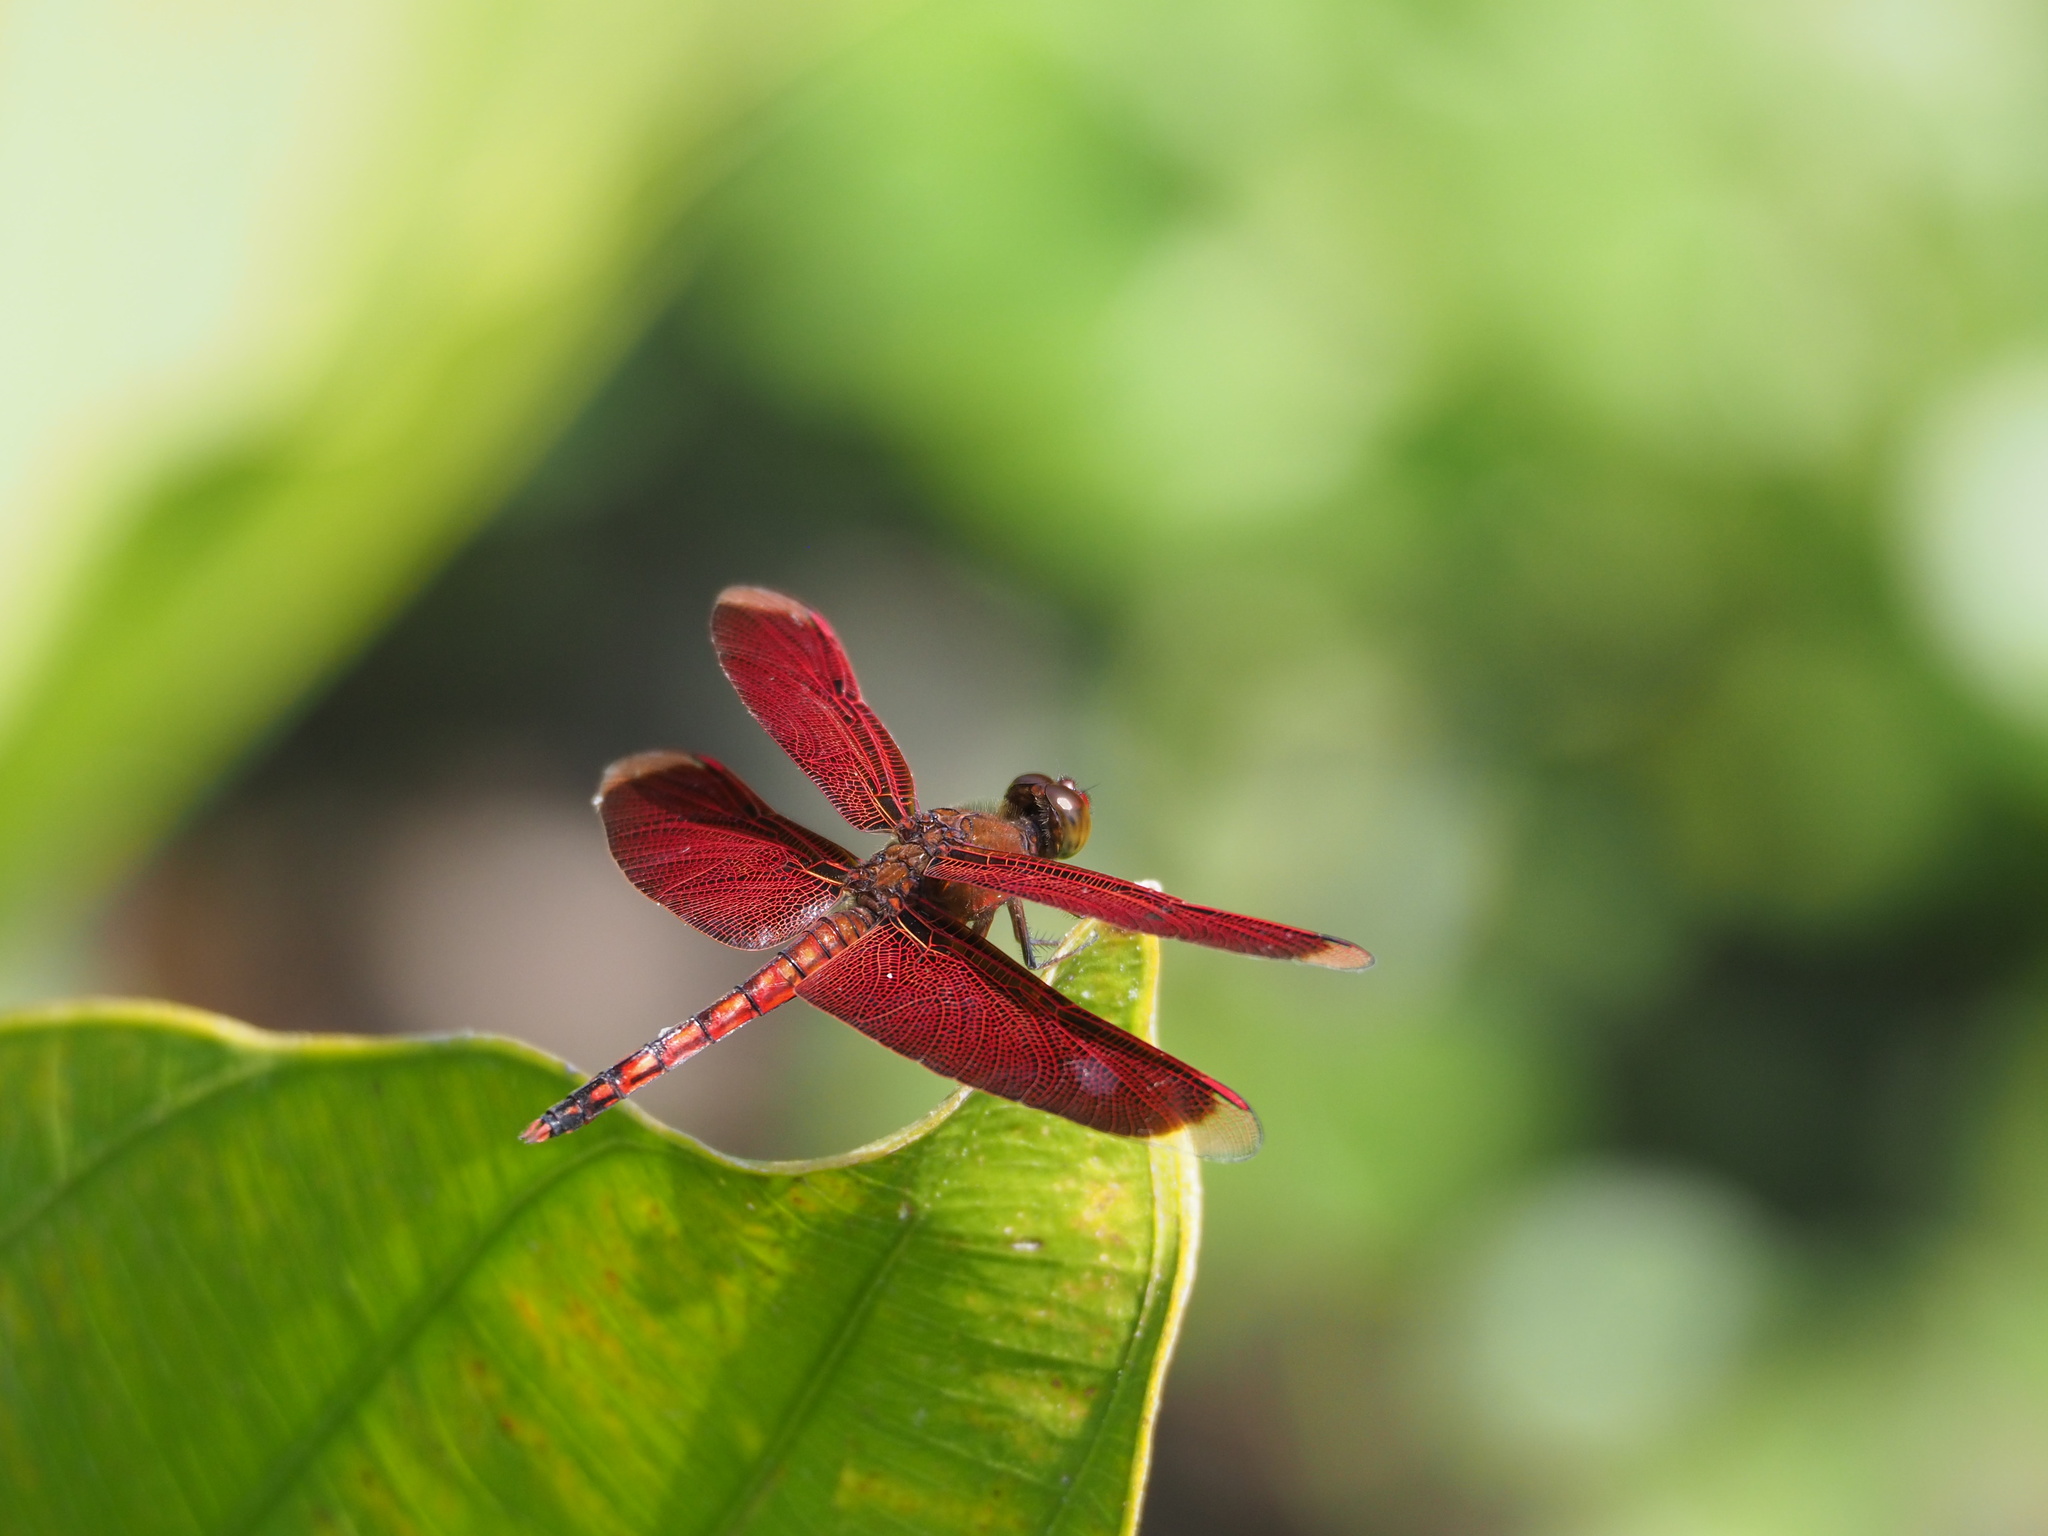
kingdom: Animalia
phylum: Arthropoda
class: Insecta
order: Odonata
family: Libellulidae
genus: Neurothemis
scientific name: Neurothemis taiwanensis
